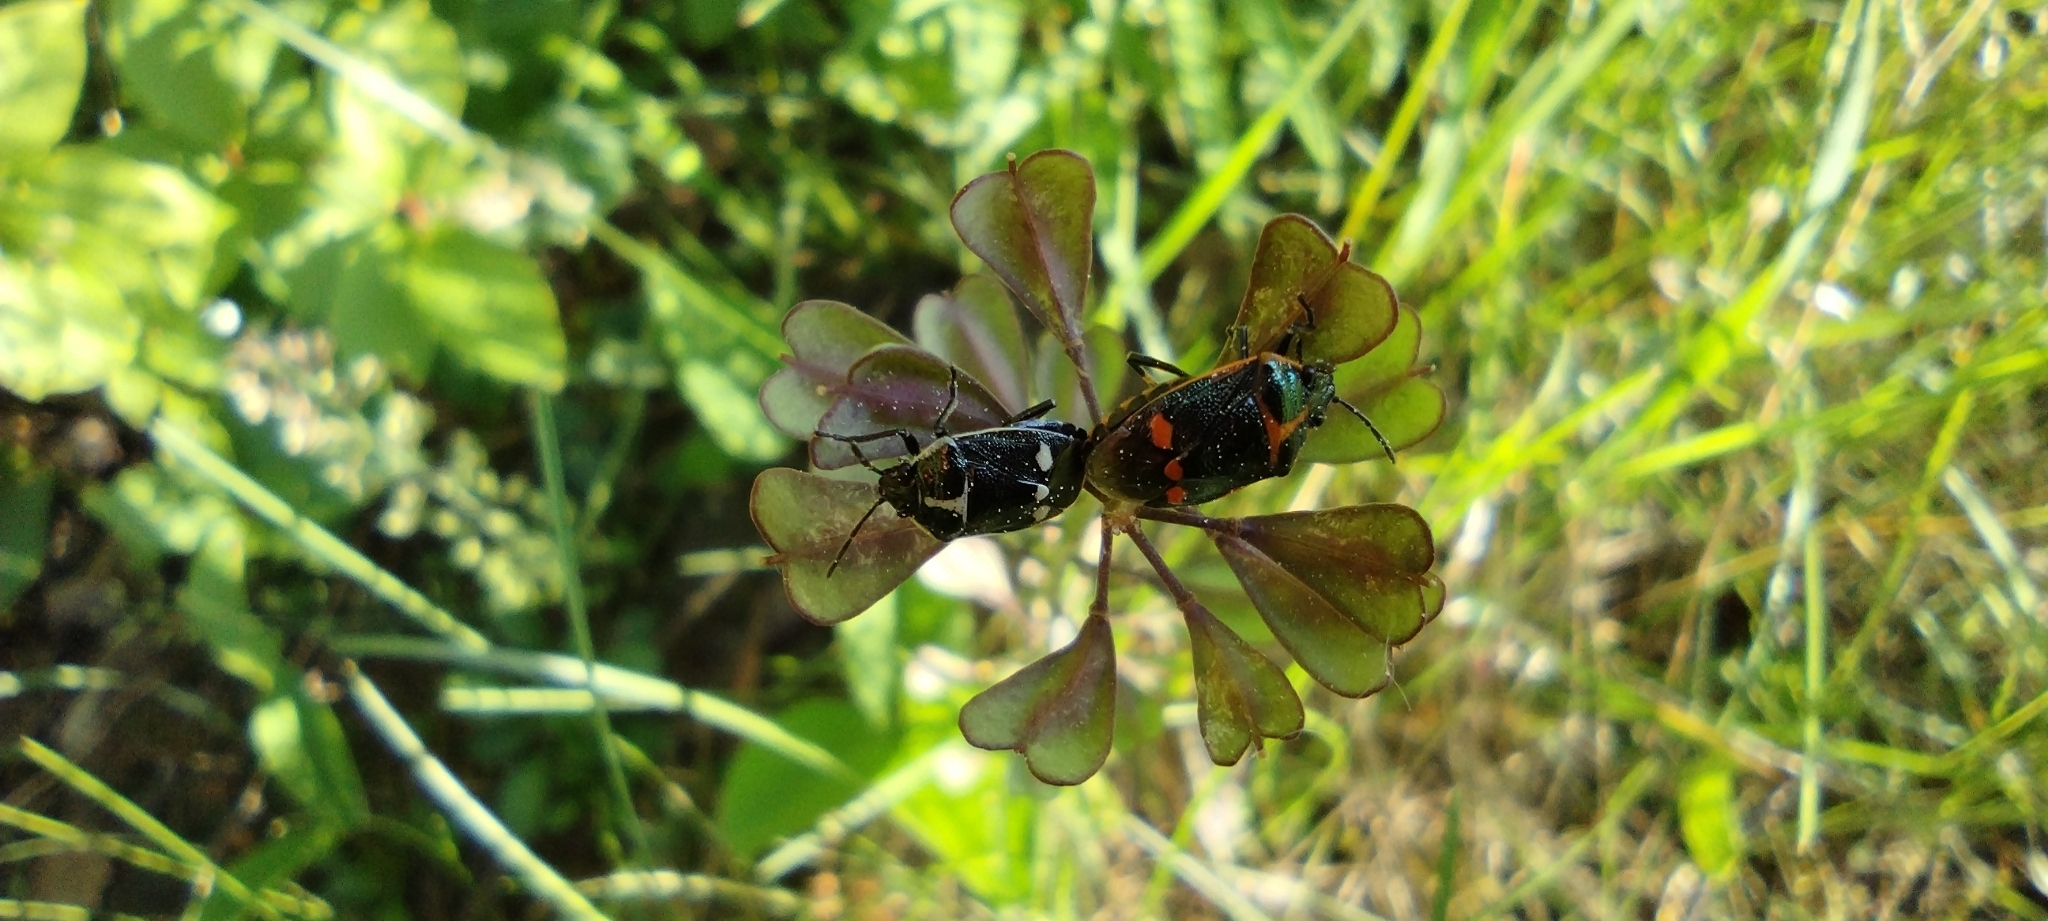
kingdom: Animalia
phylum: Arthropoda
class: Insecta
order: Hemiptera
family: Pentatomidae
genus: Eurydema
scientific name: Eurydema oleracea
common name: Cabbage bug
